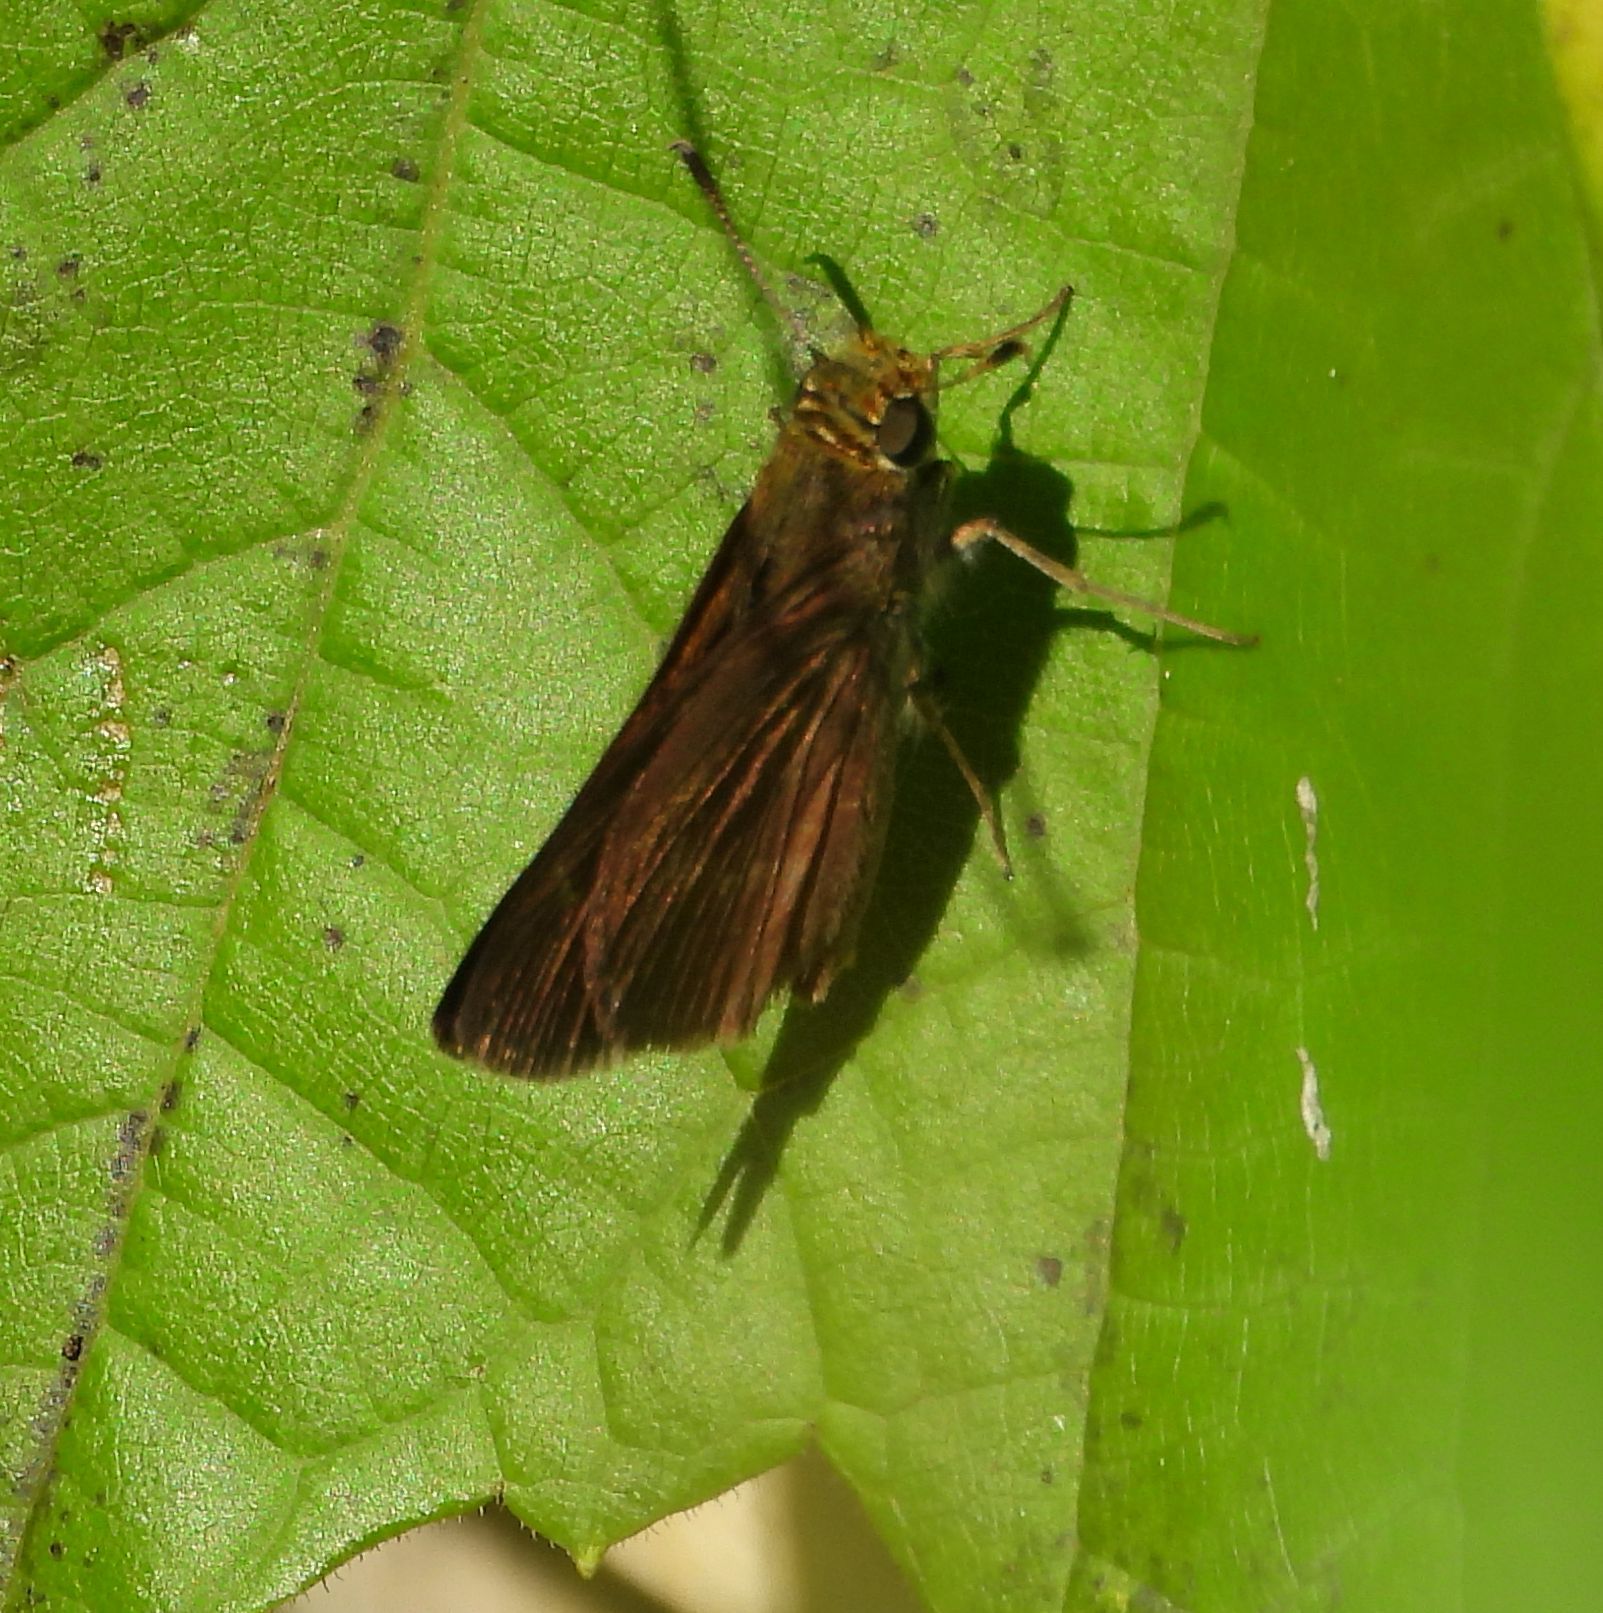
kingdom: Animalia
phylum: Arthropoda
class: Insecta
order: Lepidoptera
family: Hesperiidae
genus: Euphyes
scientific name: Euphyes vestris
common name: Dun skipper
